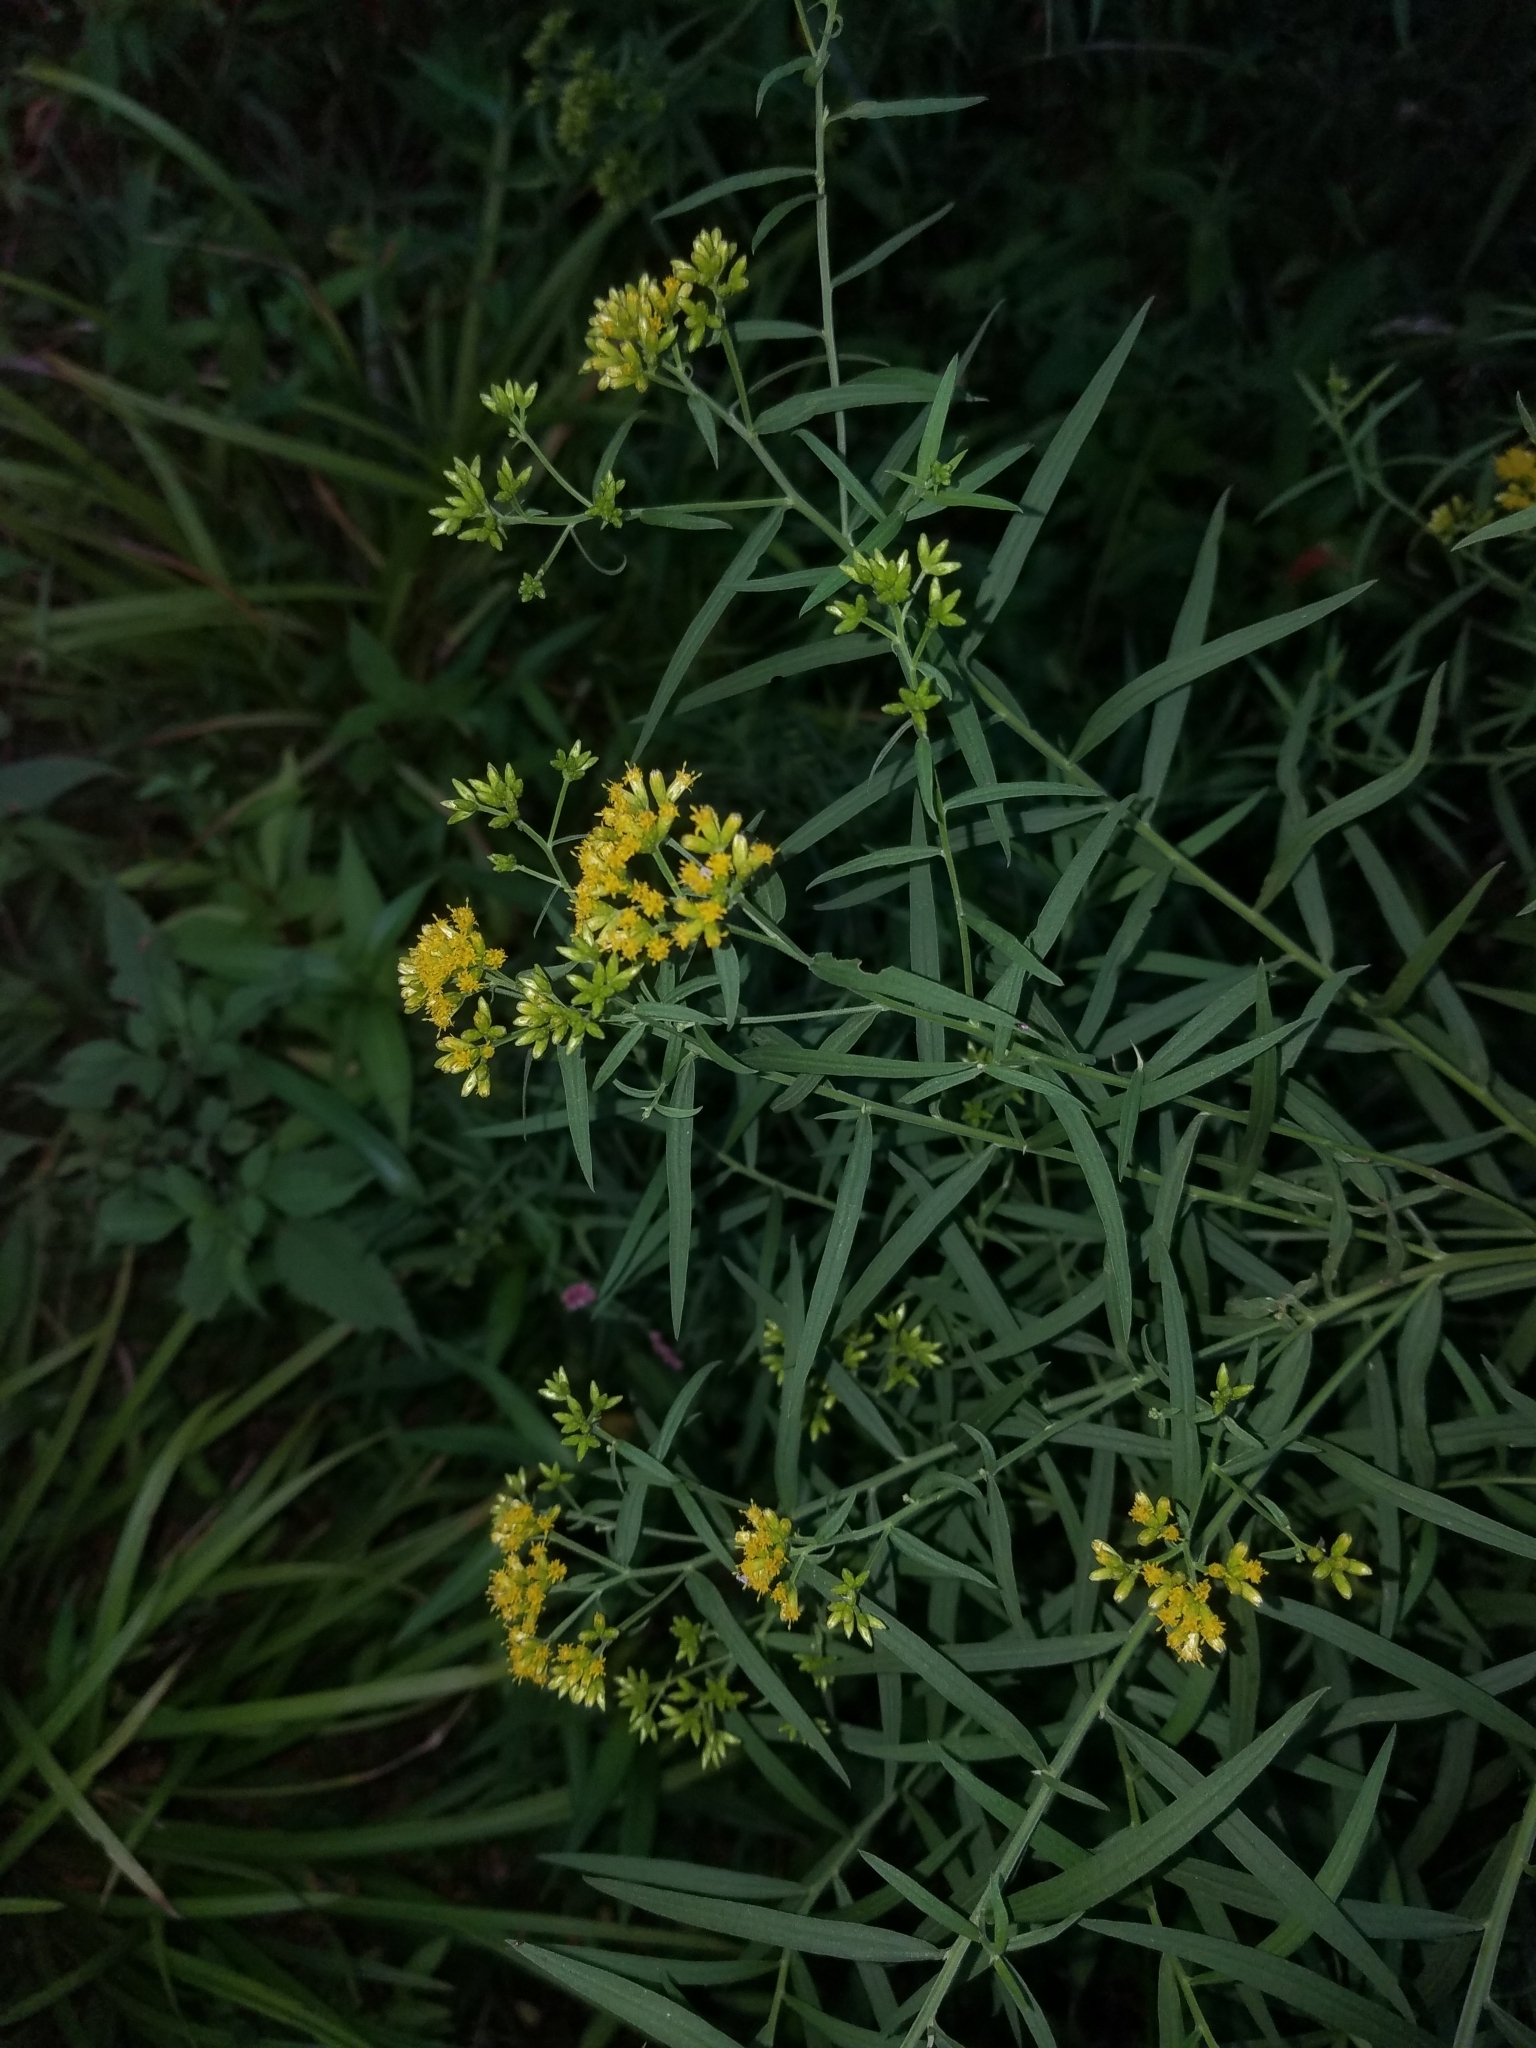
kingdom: Plantae
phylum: Tracheophyta
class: Magnoliopsida
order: Asterales
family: Asteraceae
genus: Euthamia
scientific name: Euthamia graminifolia
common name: Common goldentop
